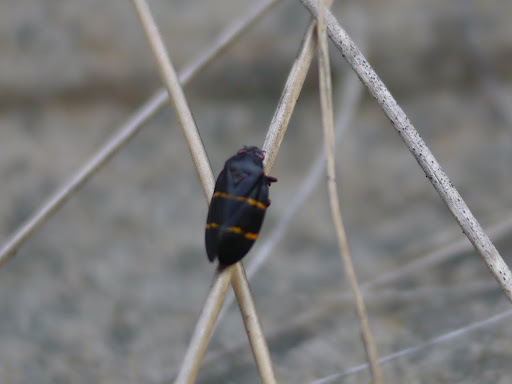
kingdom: Animalia
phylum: Arthropoda
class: Insecta
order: Hemiptera
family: Cercopidae
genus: Prosapia
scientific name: Prosapia bicincta
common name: Twolined spittlebug
